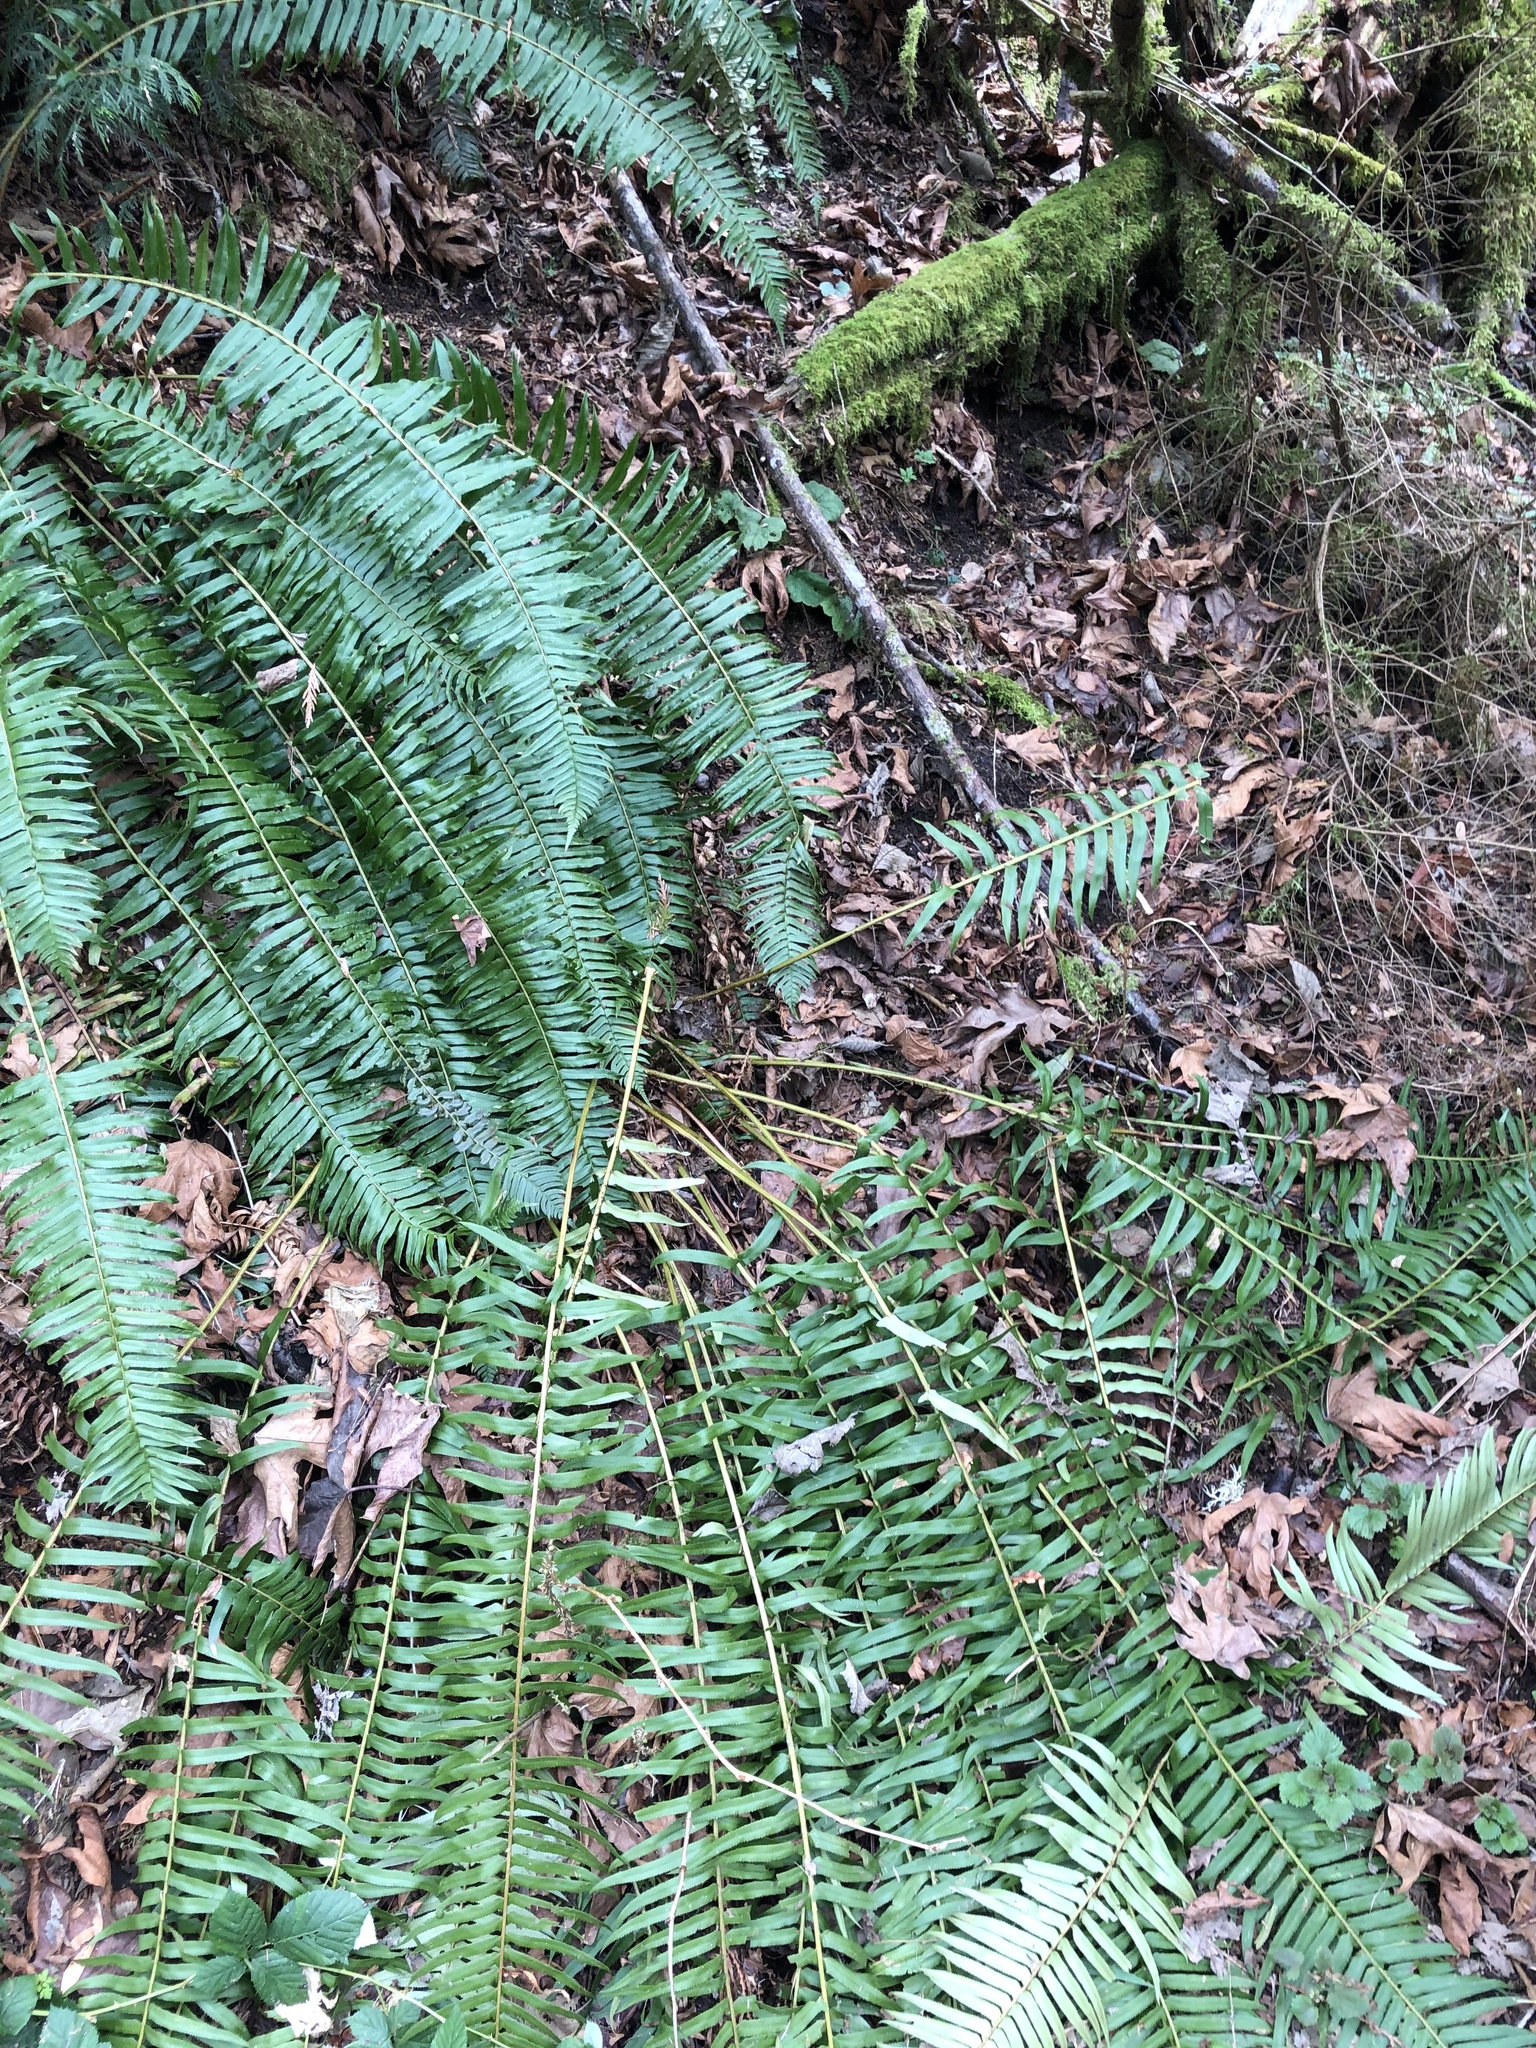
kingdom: Plantae
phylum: Tracheophyta
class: Polypodiopsida
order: Polypodiales
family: Dryopteridaceae
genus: Polystichum
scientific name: Polystichum munitum
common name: Western sword-fern
